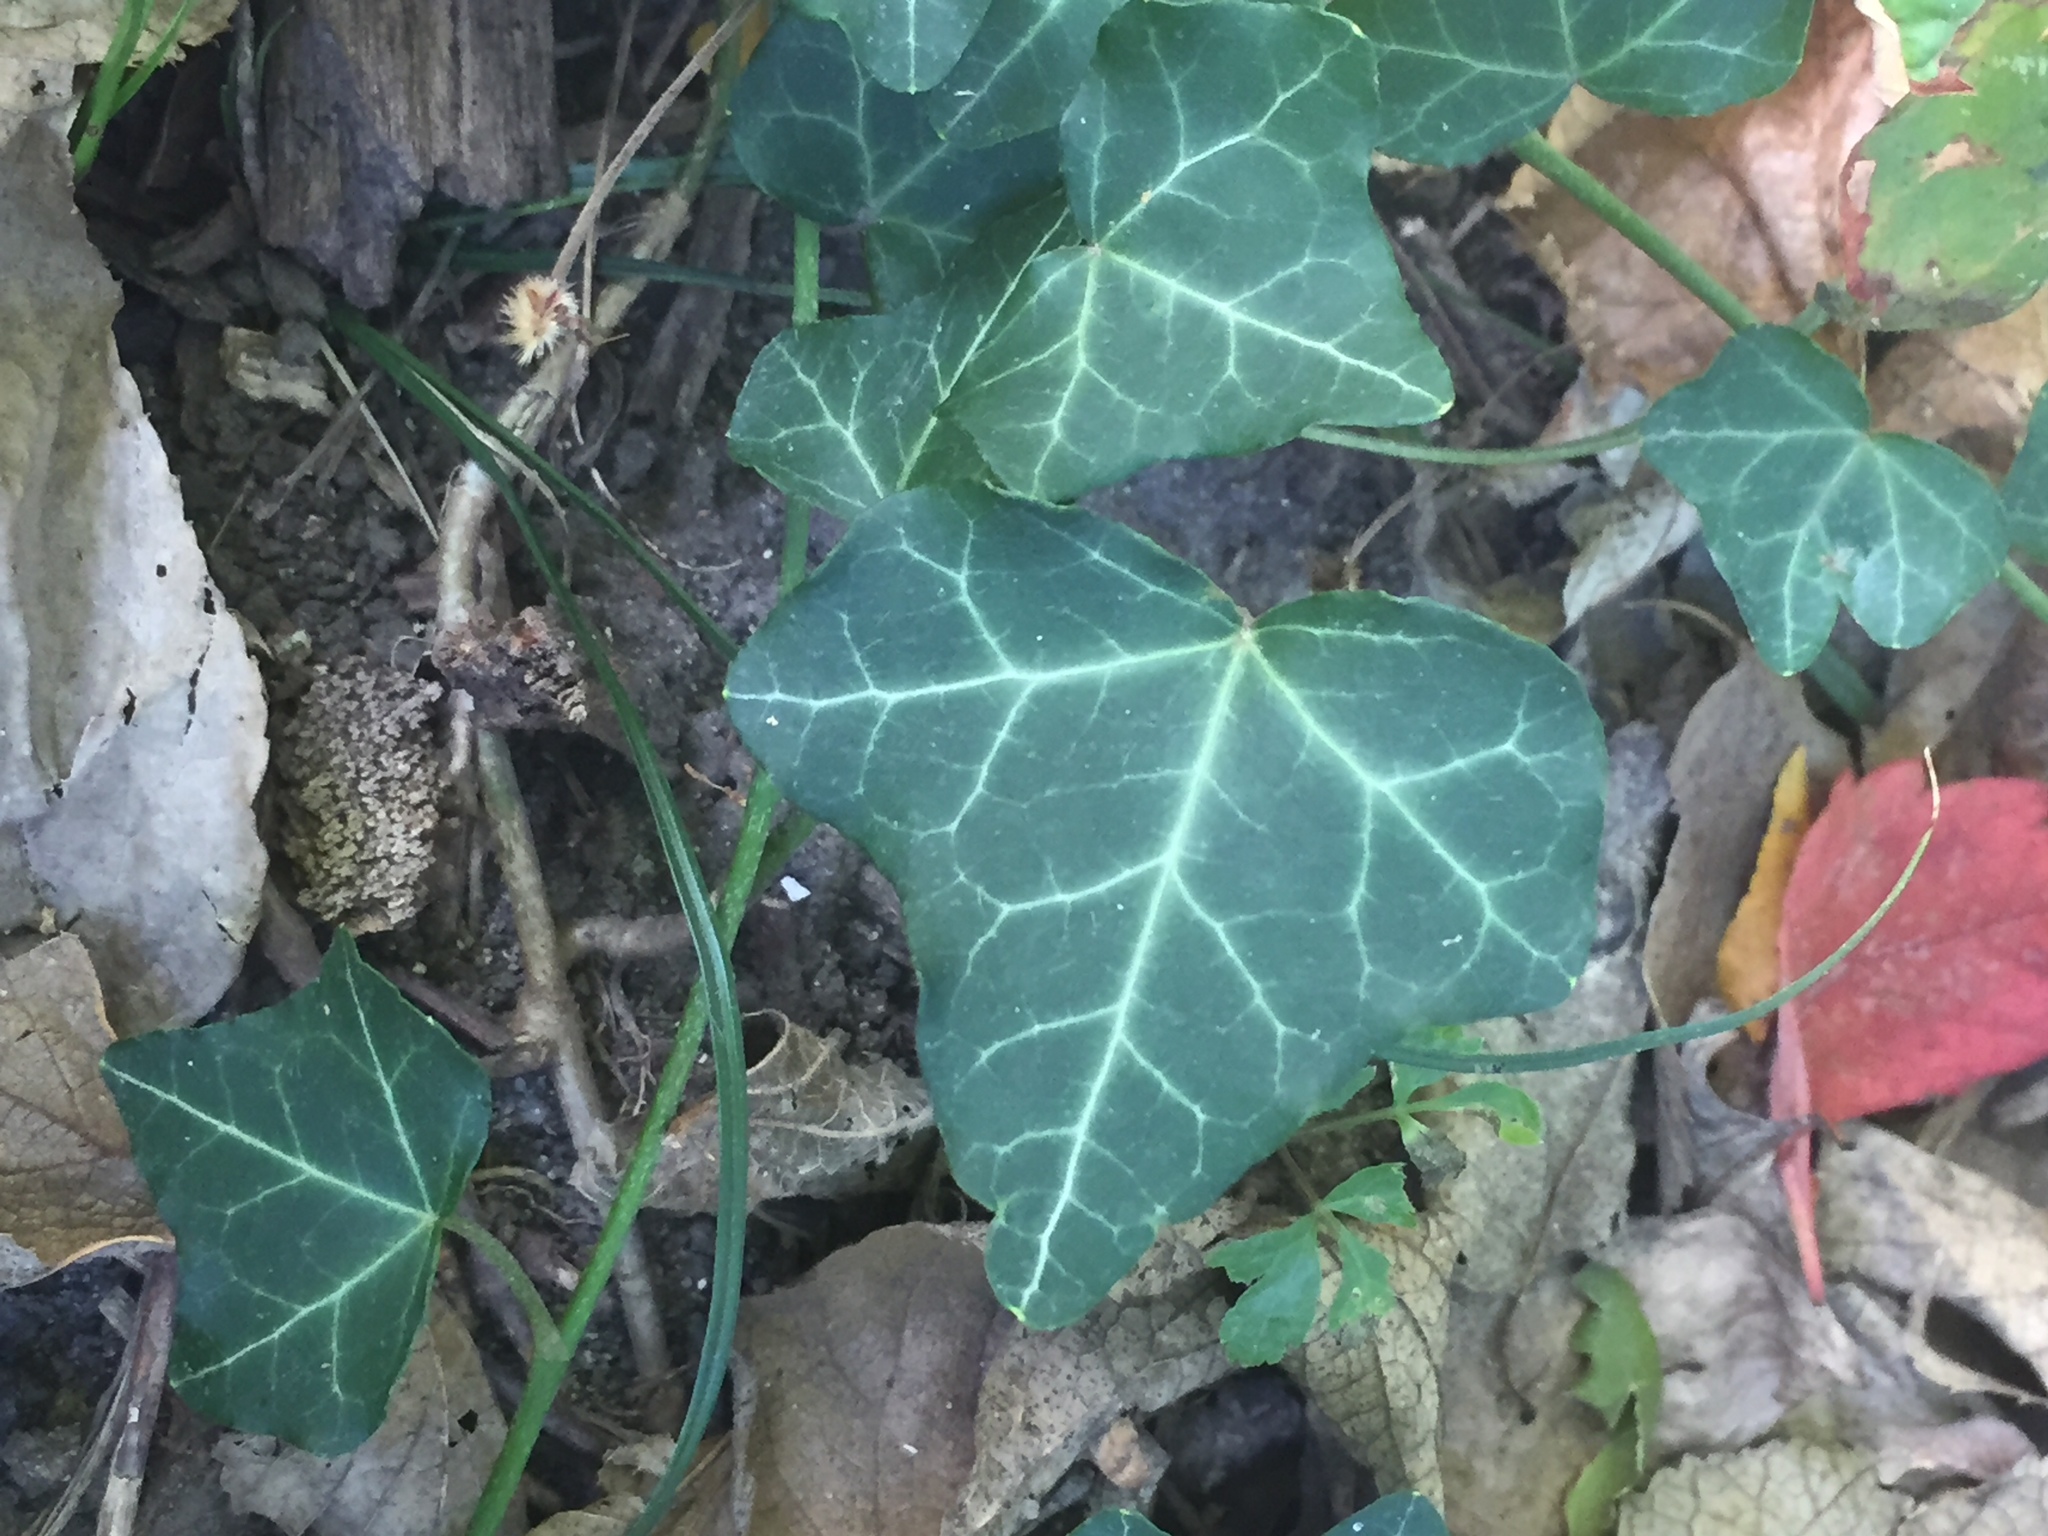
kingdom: Plantae
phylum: Tracheophyta
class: Magnoliopsida
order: Apiales
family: Araliaceae
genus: Hedera
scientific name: Hedera helix
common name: Ivy
